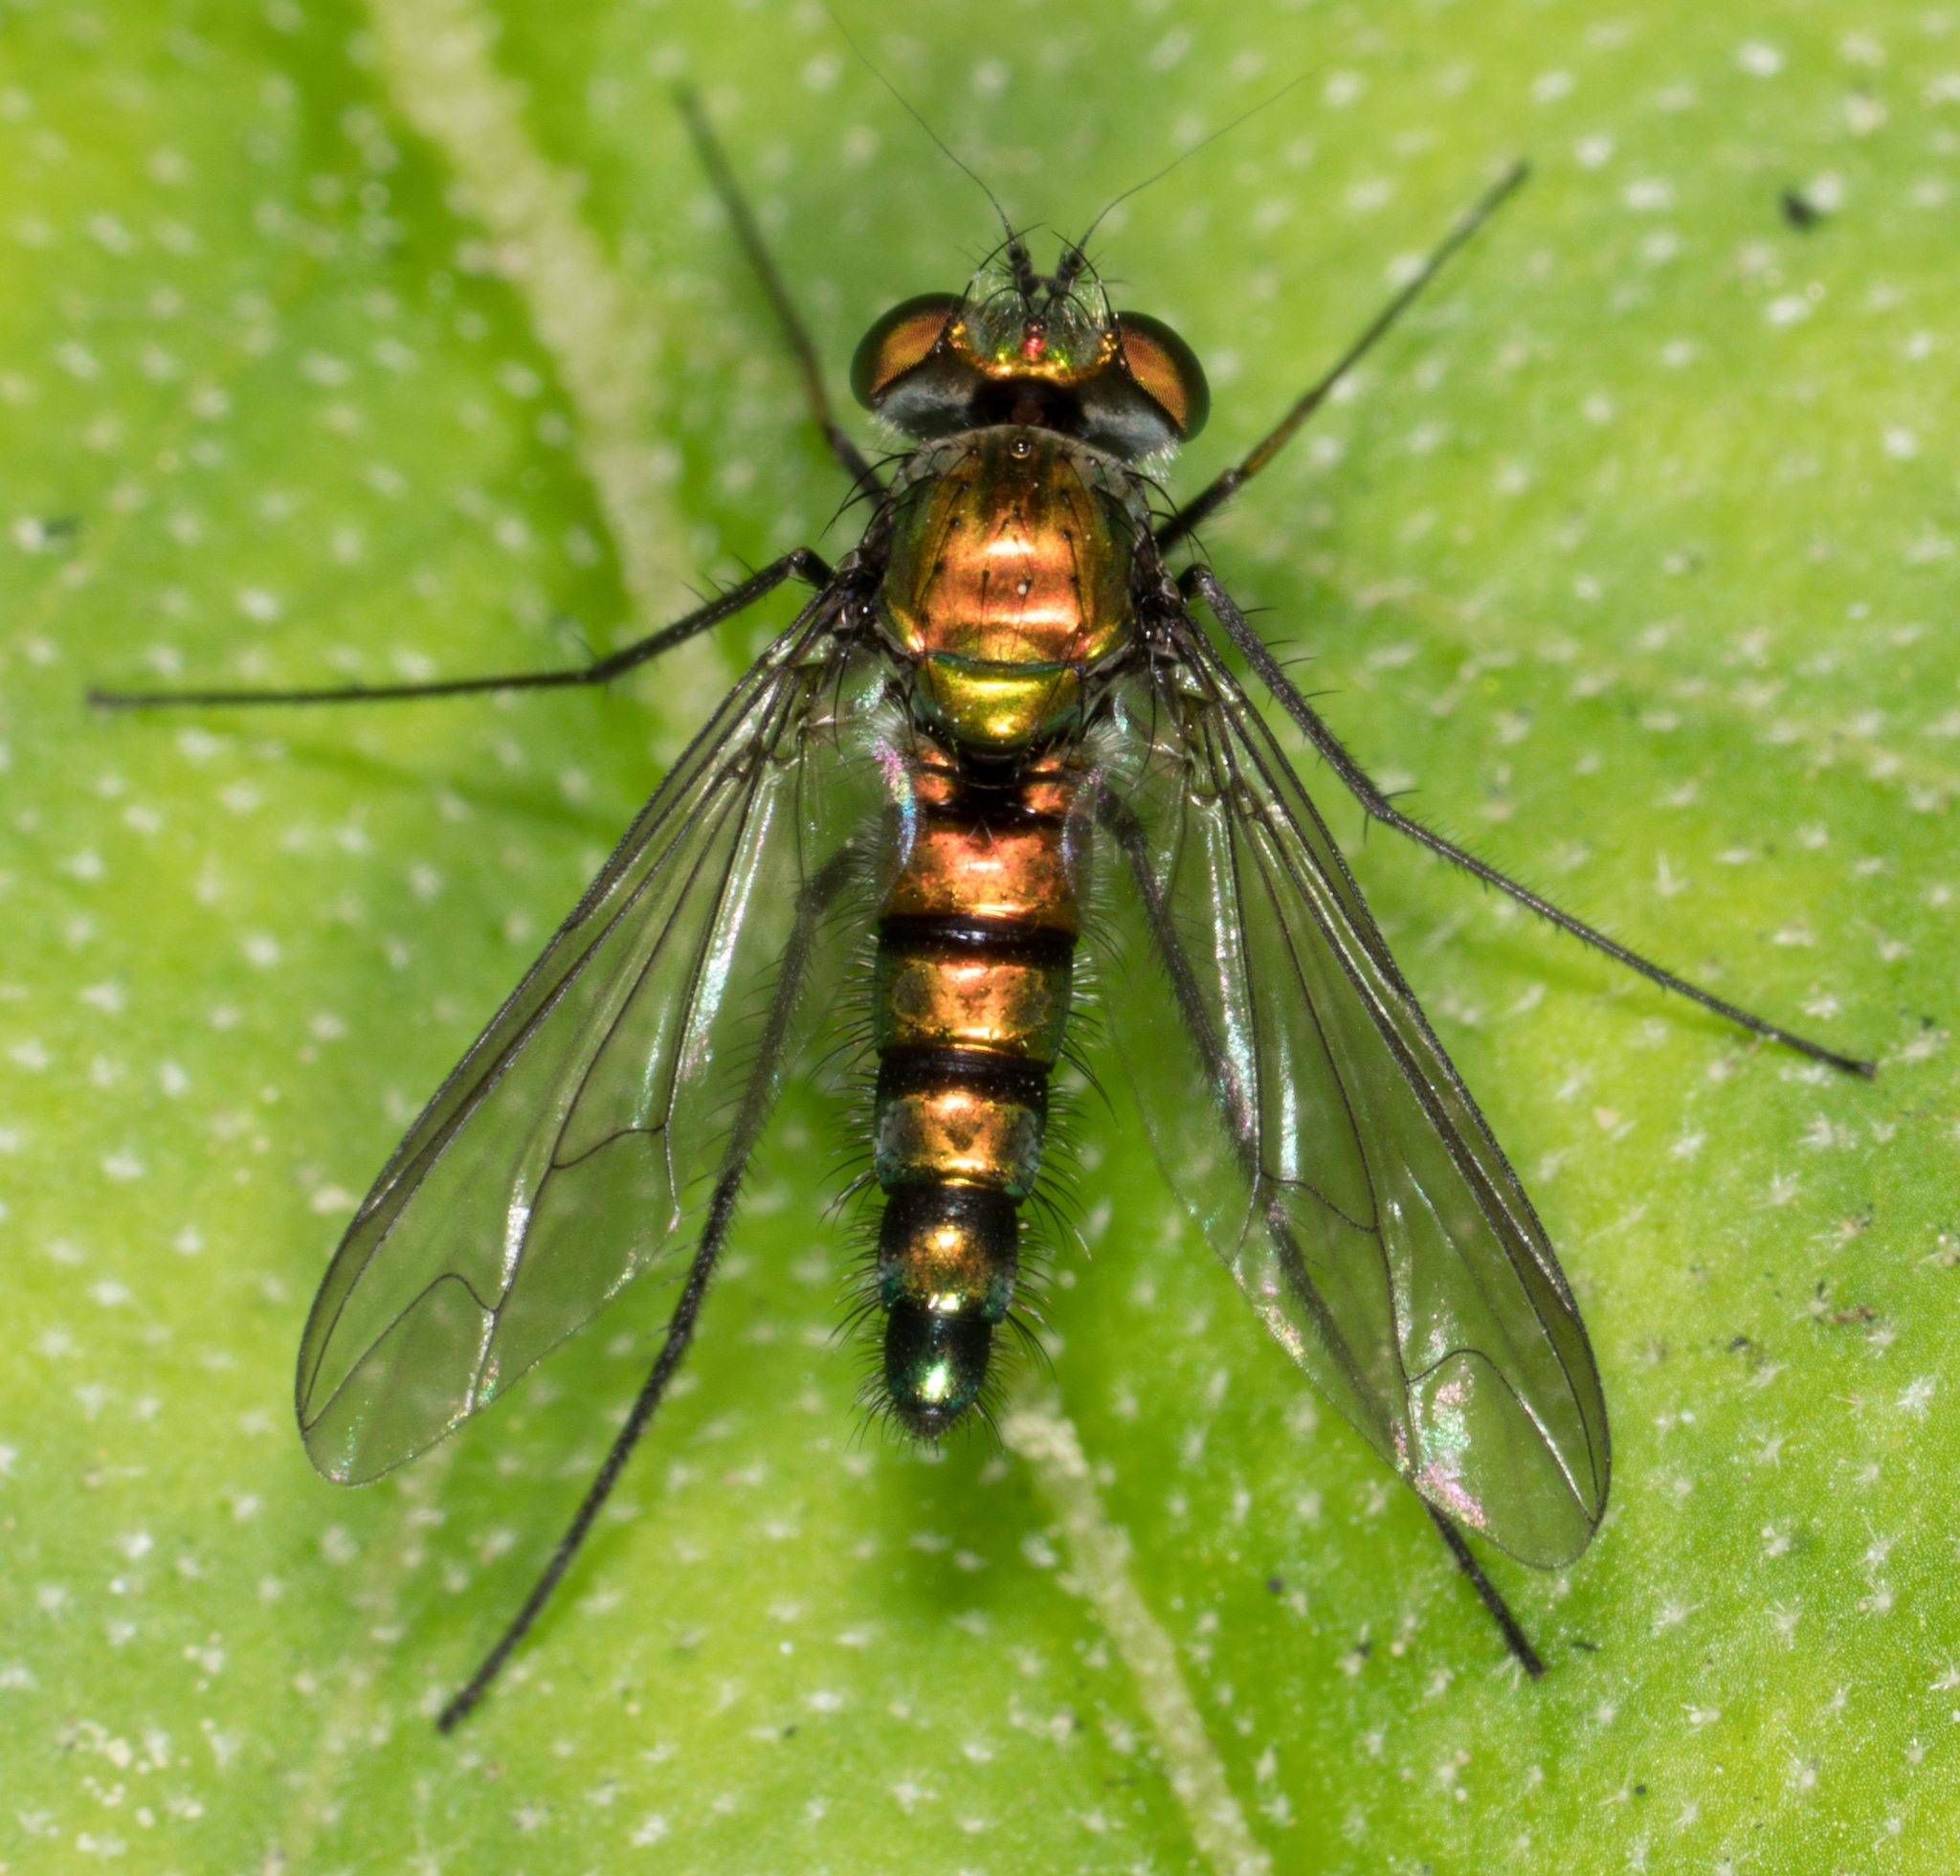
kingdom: Animalia
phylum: Arthropoda
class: Insecta
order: Diptera
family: Dolichopodidae
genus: Condylostylus
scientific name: Condylostylus longicornis
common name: Long-legged fly
